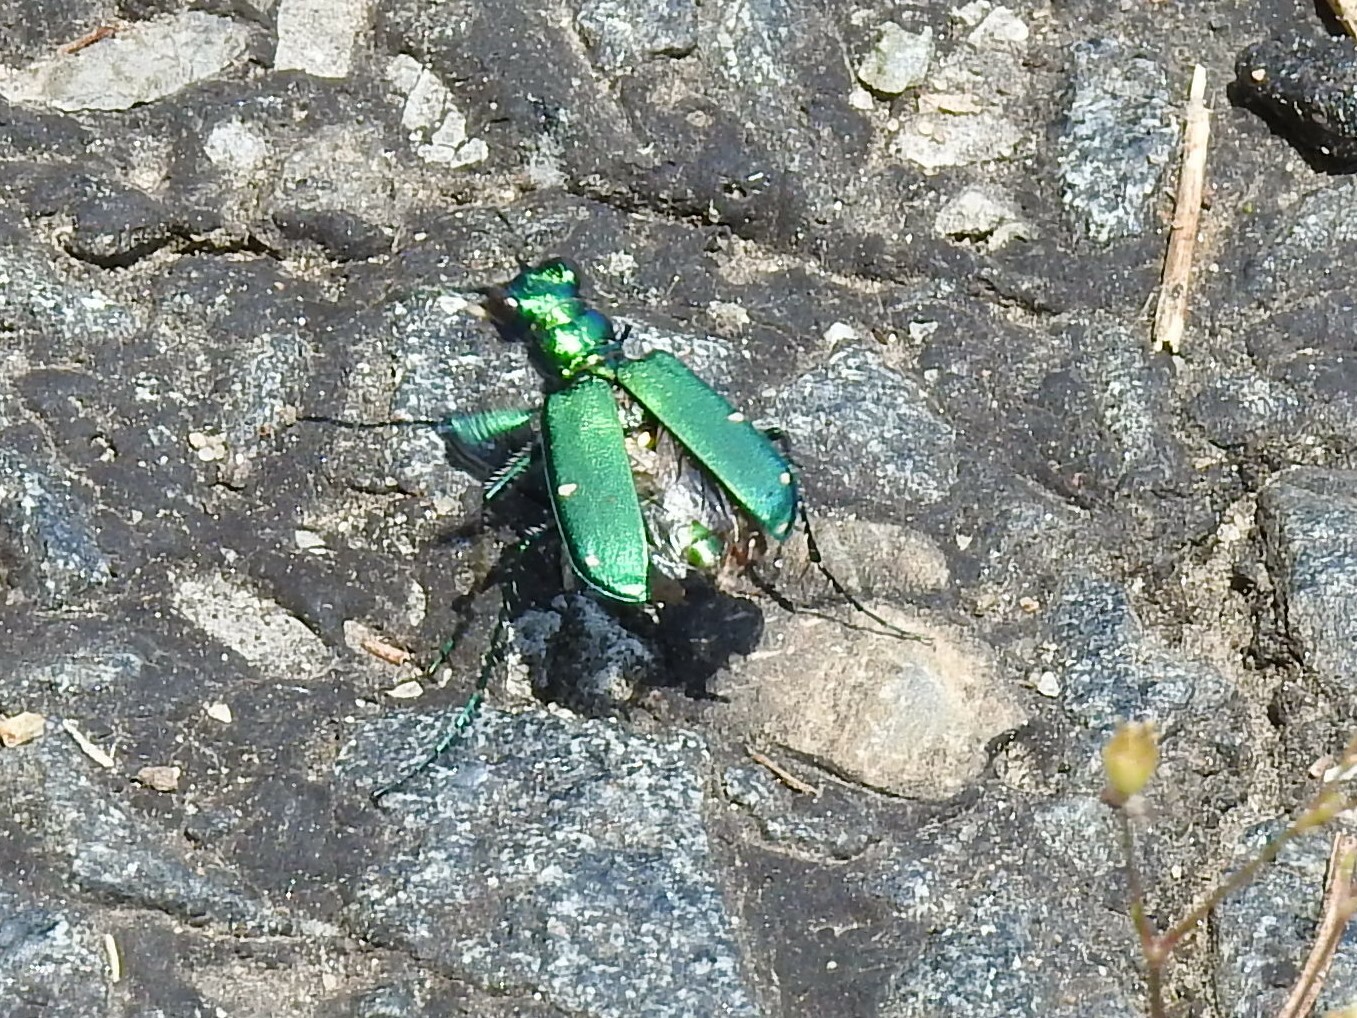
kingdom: Animalia
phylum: Arthropoda
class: Insecta
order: Coleoptera
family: Carabidae
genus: Cicindela
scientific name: Cicindela sexguttata
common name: Six-spotted tiger beetle
